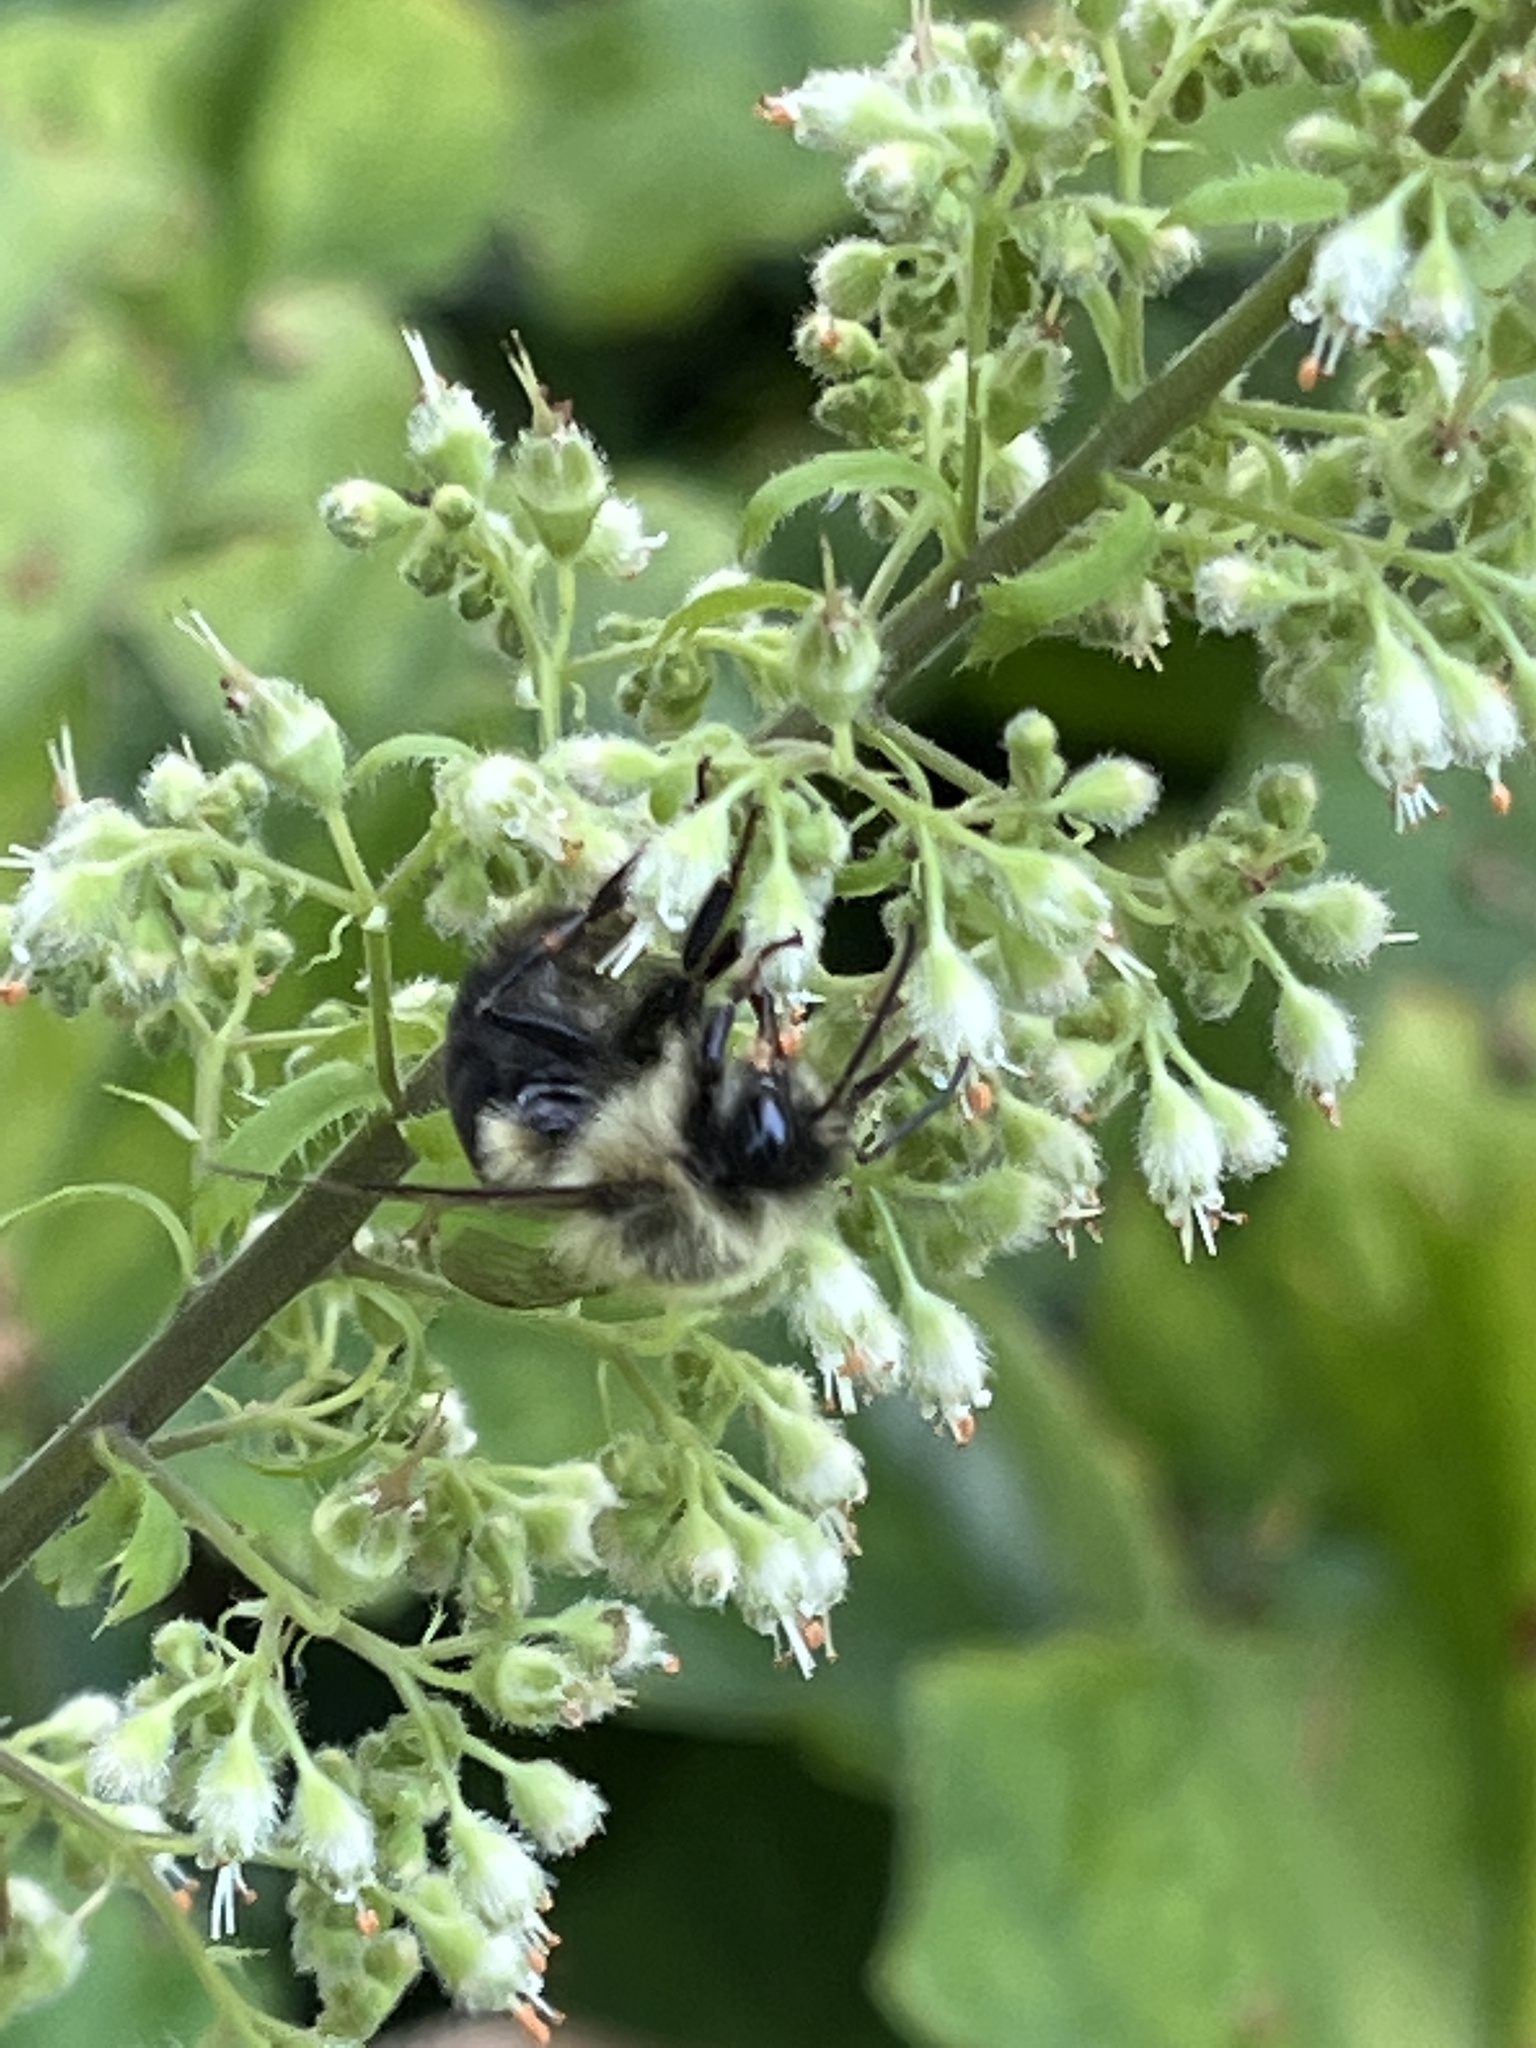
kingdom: Animalia
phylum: Arthropoda
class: Insecta
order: Hymenoptera
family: Apidae
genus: Bombus
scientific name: Bombus impatiens
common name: Common eastern bumble bee
